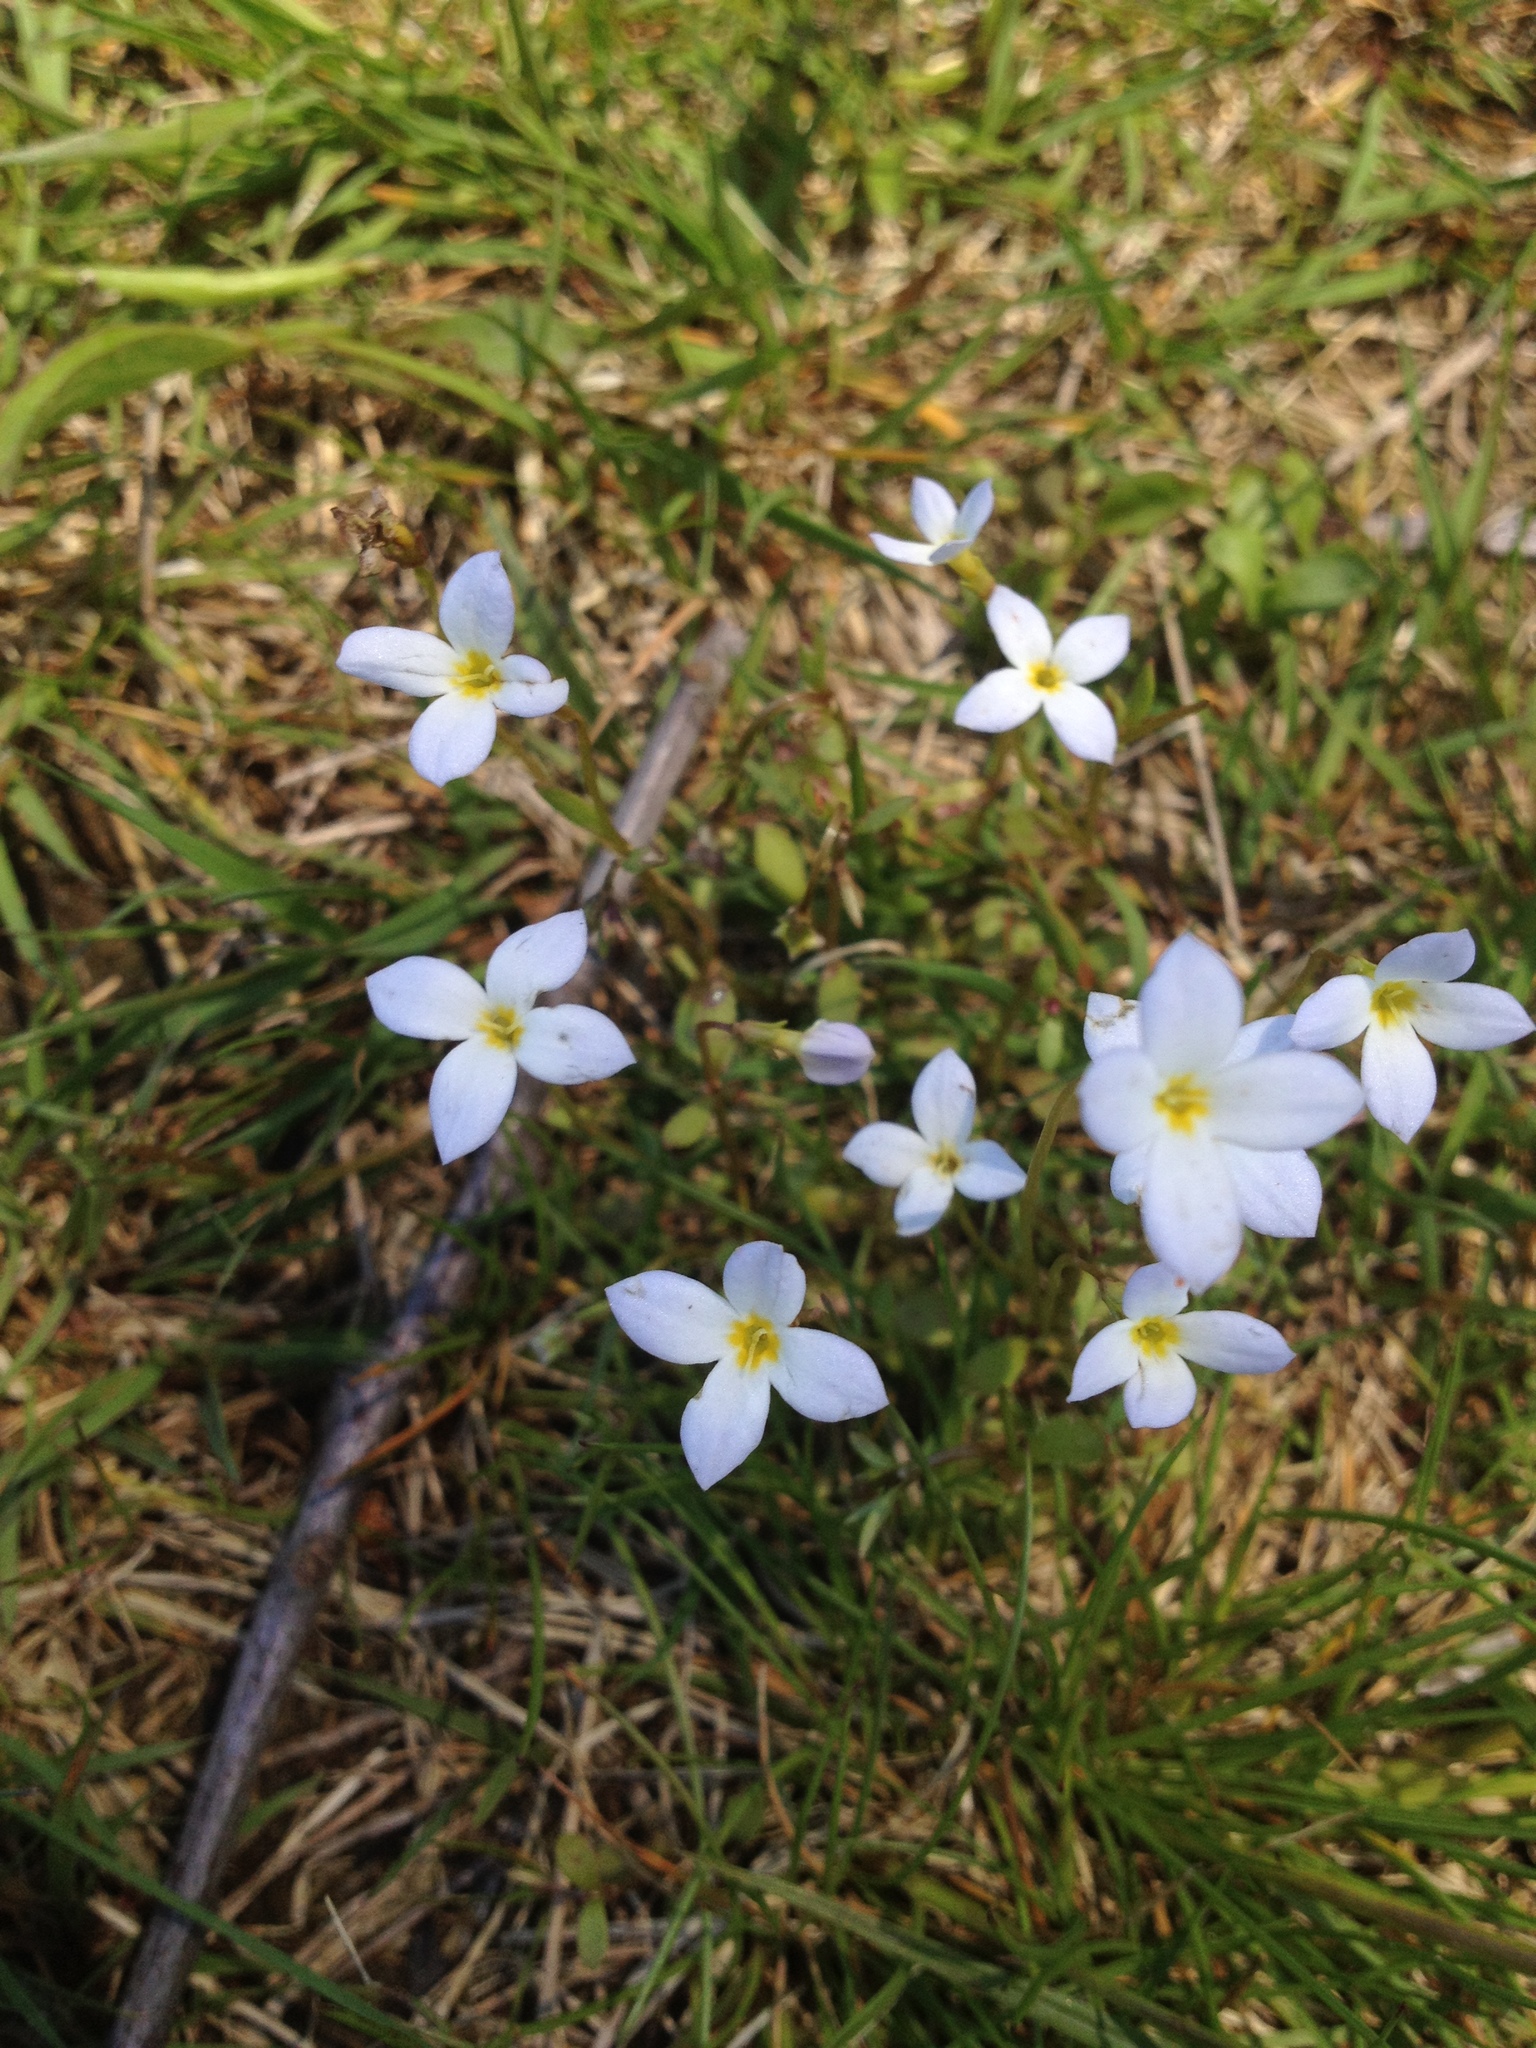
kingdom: Plantae
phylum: Tracheophyta
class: Magnoliopsida
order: Gentianales
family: Rubiaceae
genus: Houstonia
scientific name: Houstonia caerulea
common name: Bluets
